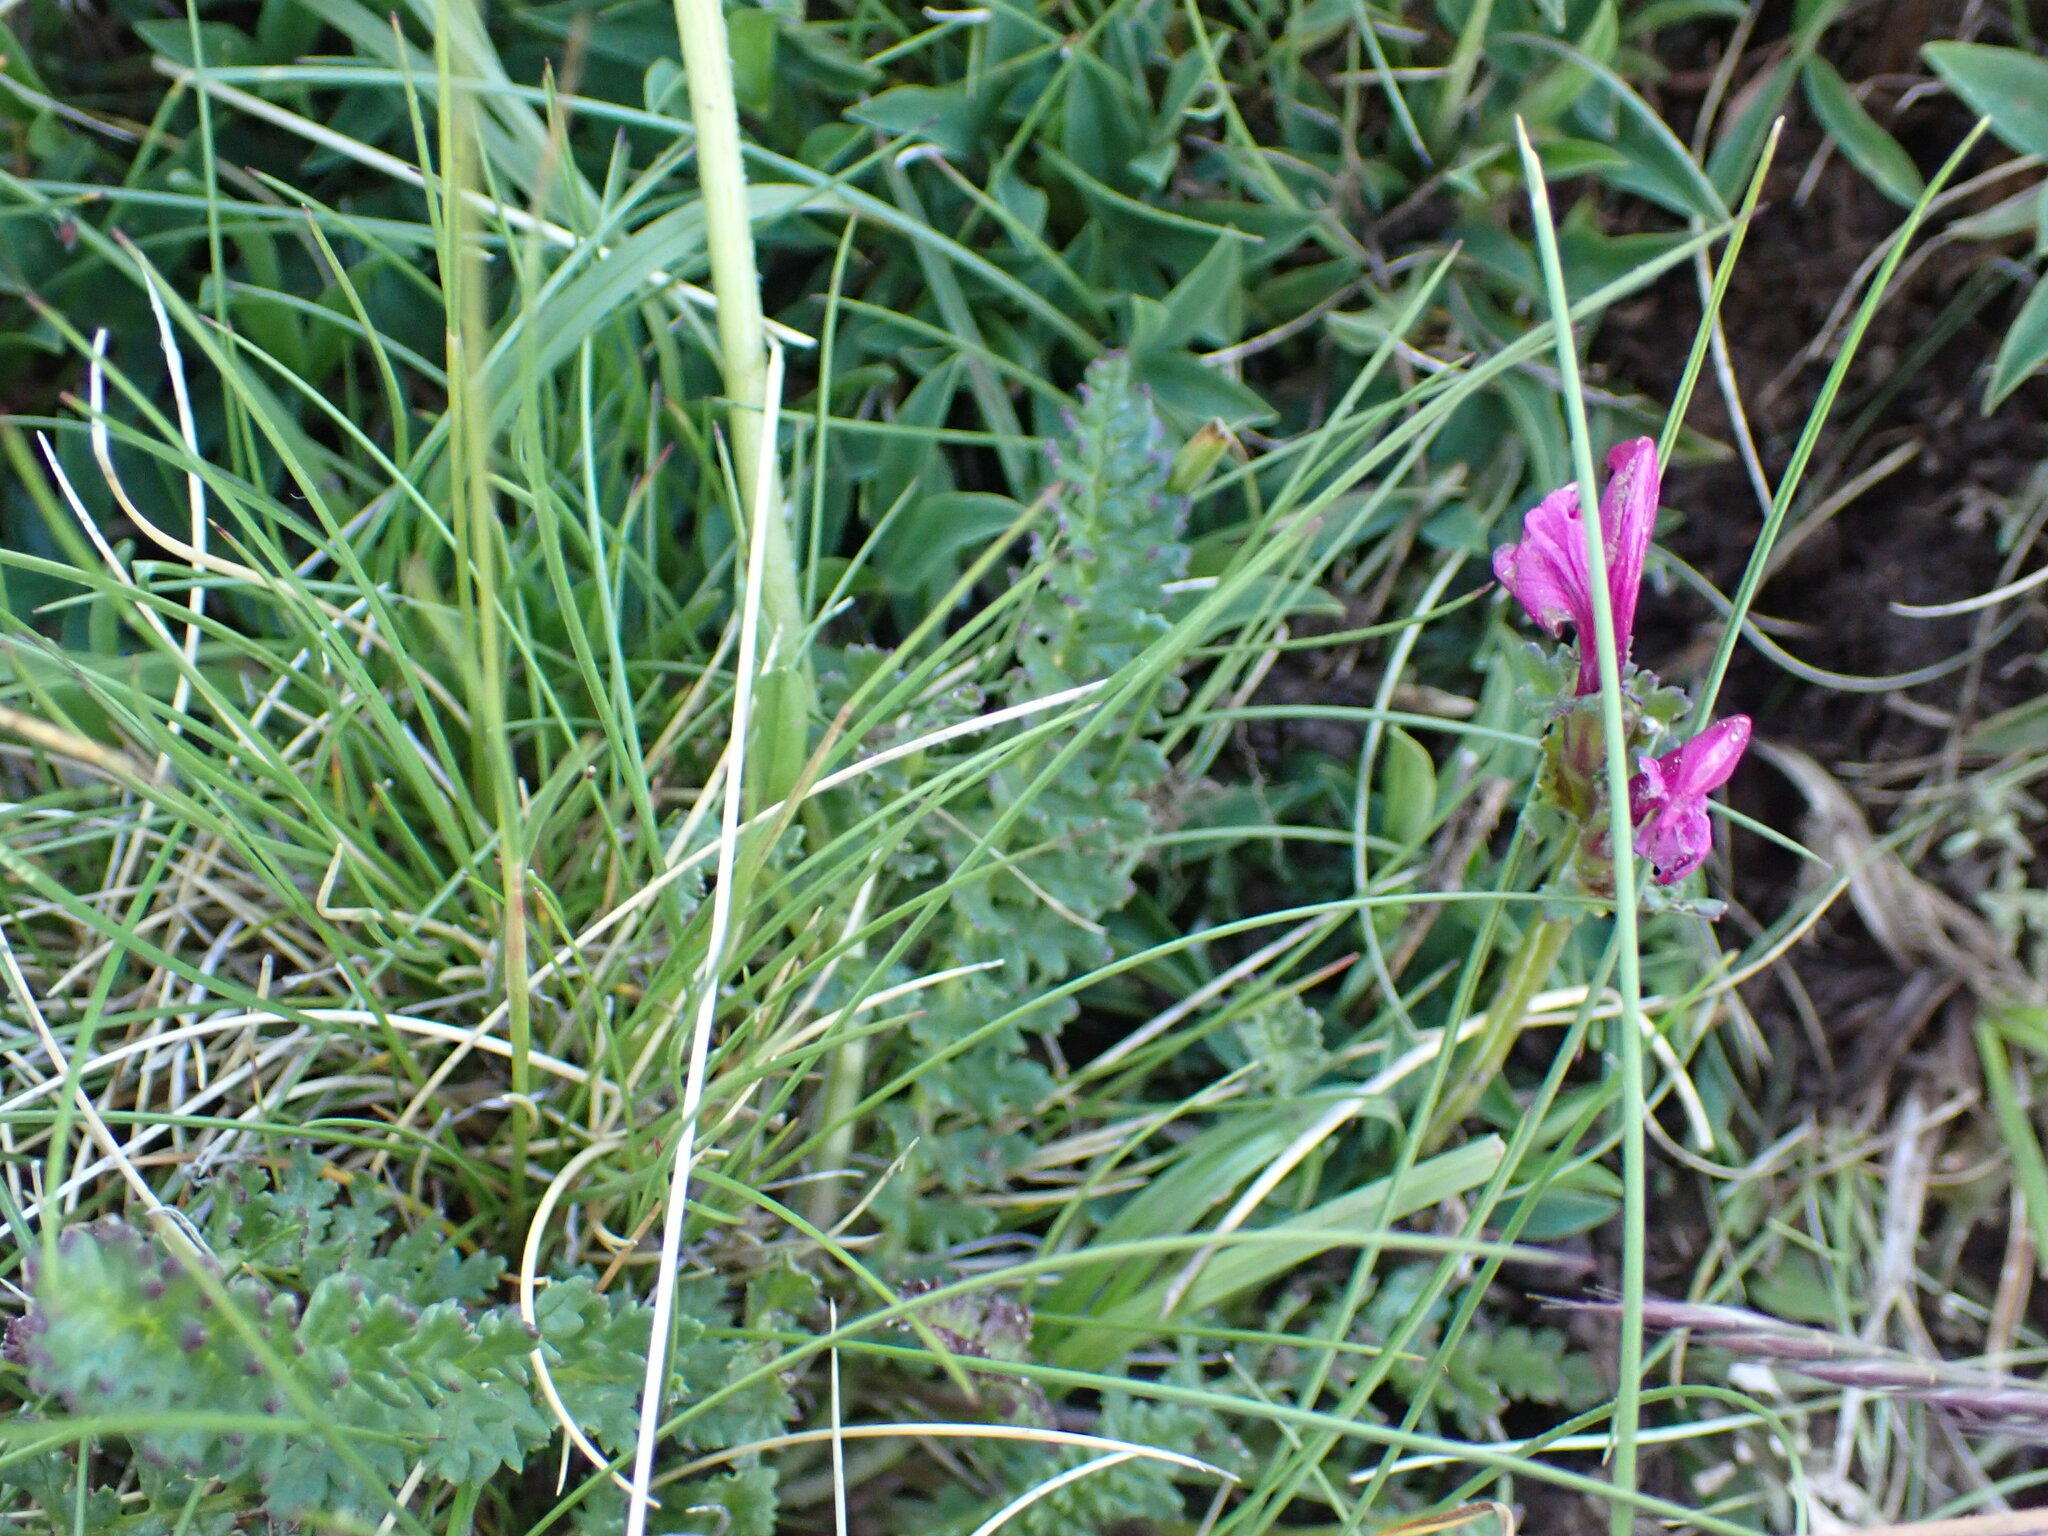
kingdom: Plantae
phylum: Tracheophyta
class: Magnoliopsida
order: Lamiales
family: Orobanchaceae
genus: Pedicularis
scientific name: Pedicularis pyrenaica
